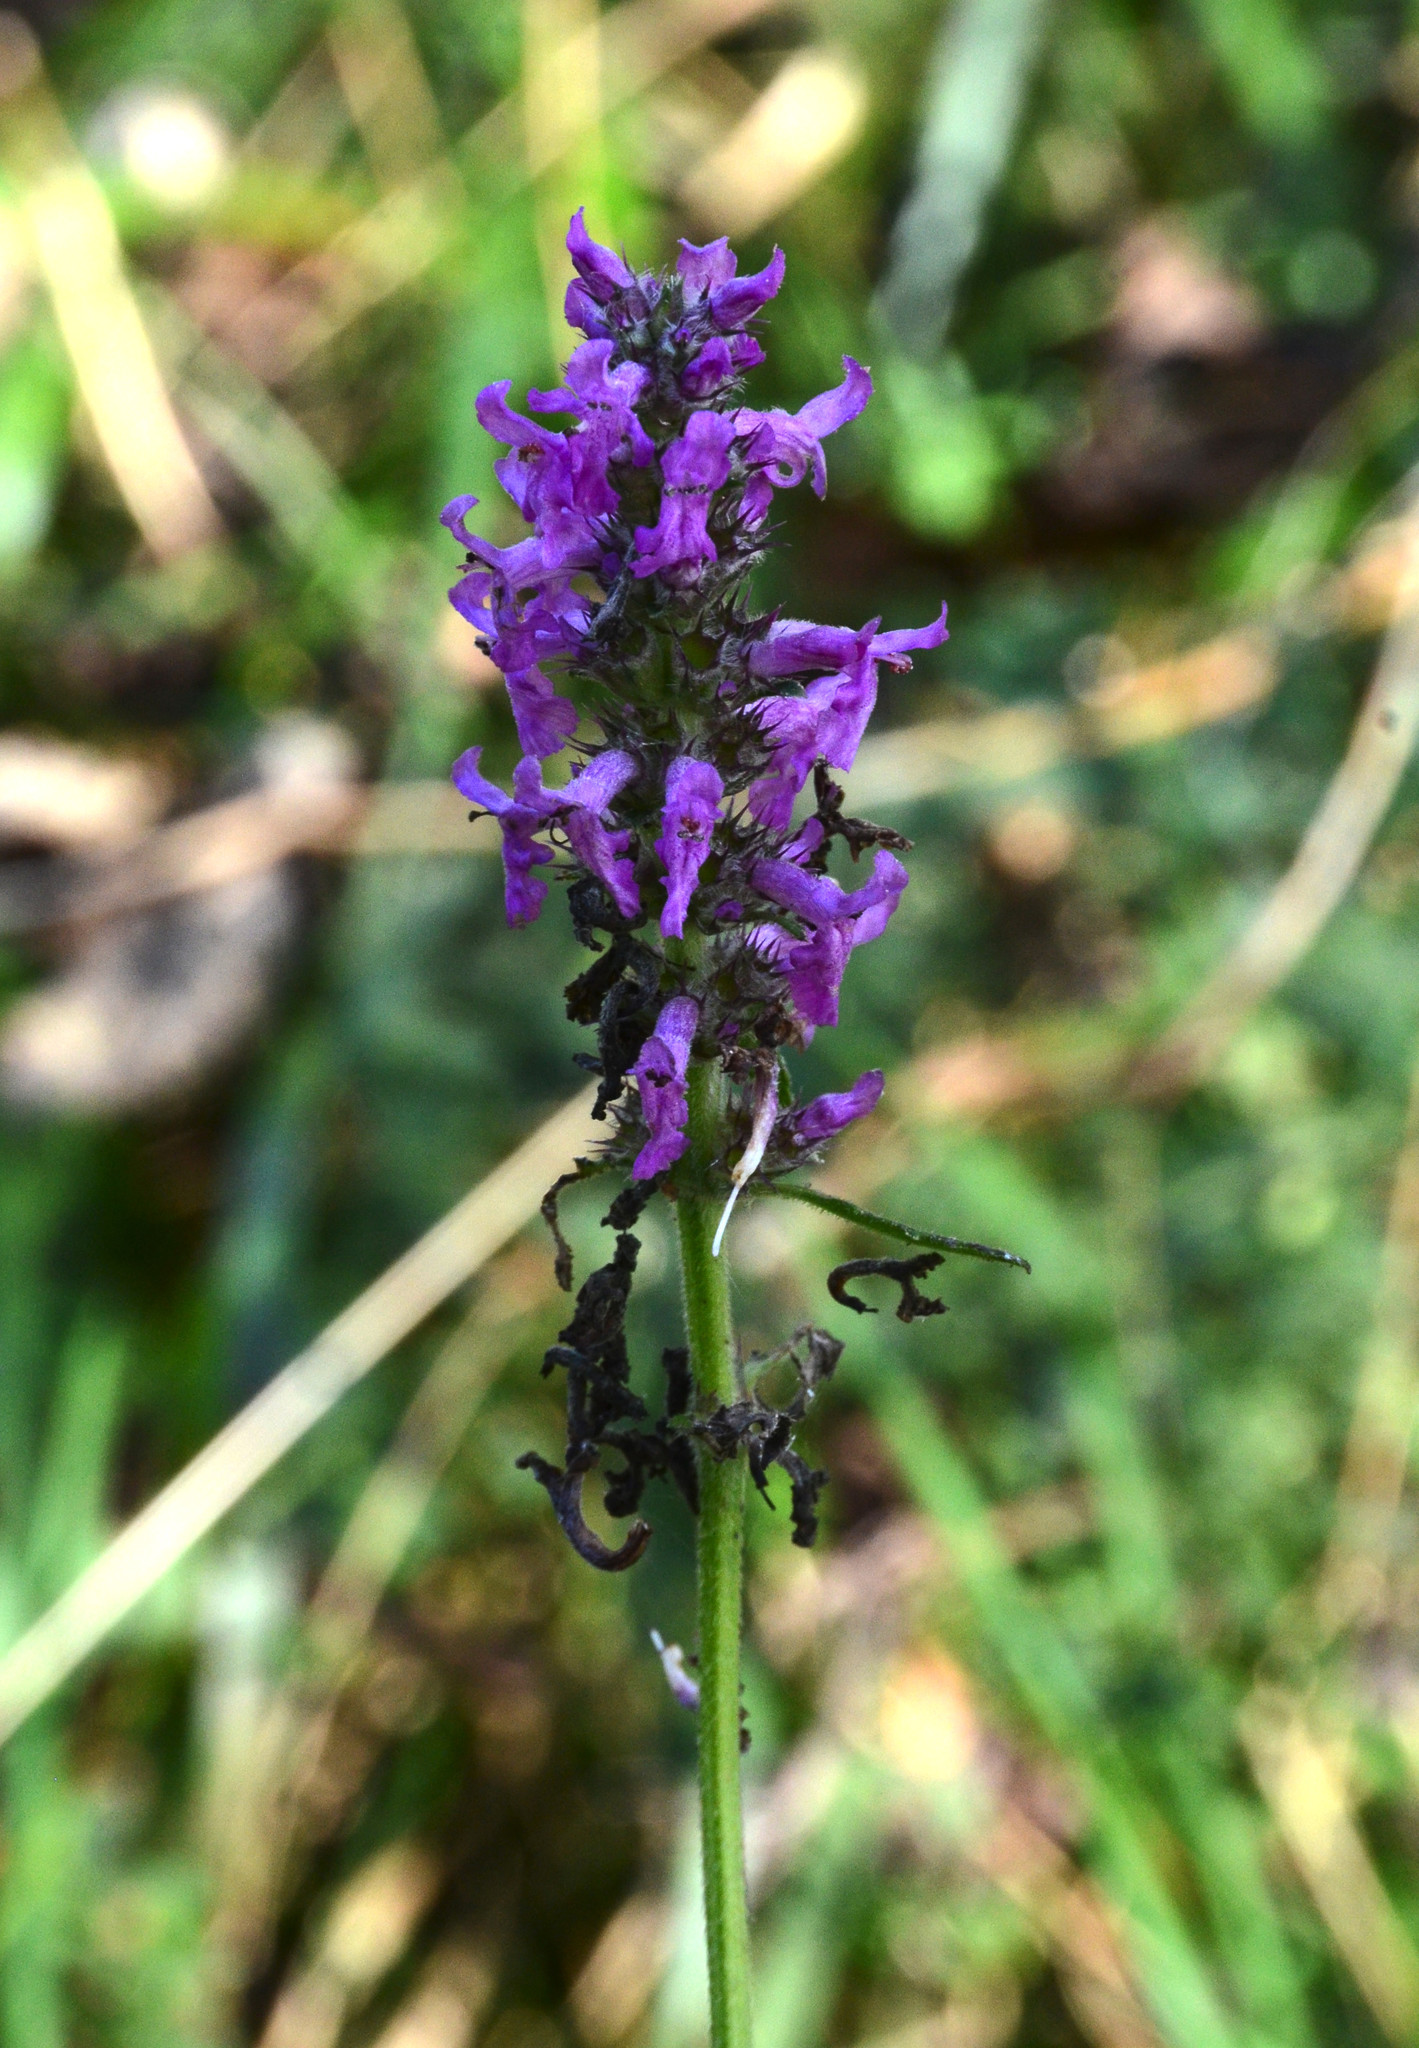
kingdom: Plantae
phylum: Tracheophyta
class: Magnoliopsida
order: Lamiales
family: Lamiaceae
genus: Betonica
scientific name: Betonica officinalis
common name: Bishop's-wort
